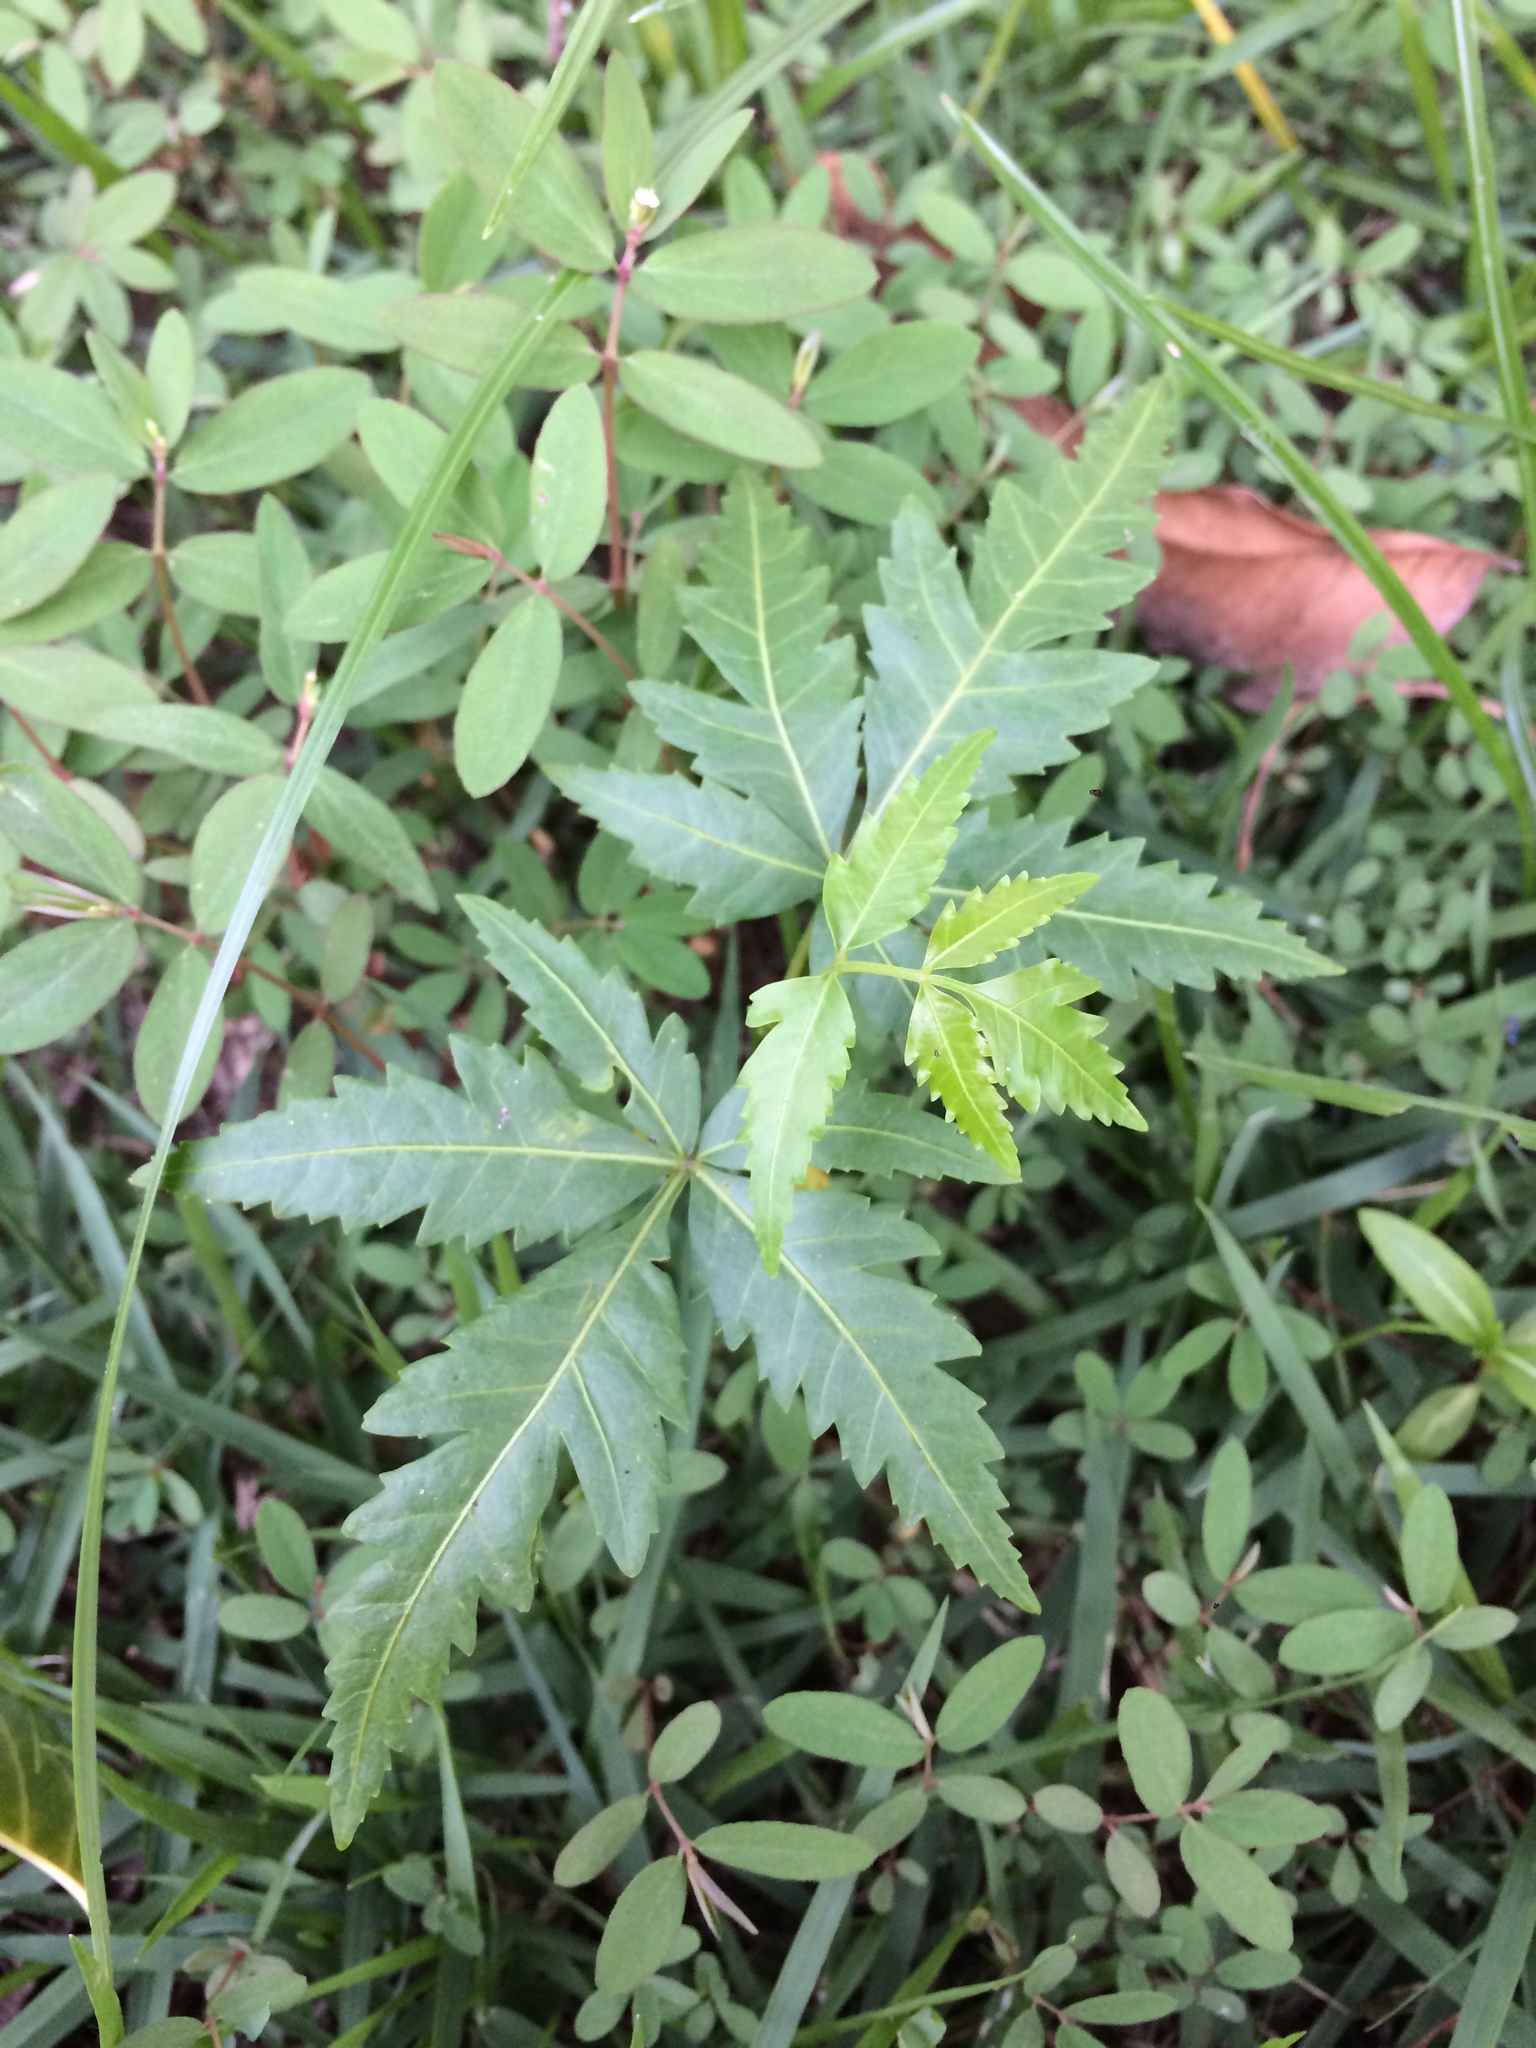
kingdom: Plantae
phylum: Tracheophyta
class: Magnoliopsida
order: Sapindales
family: Meliaceae
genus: Azadirachta
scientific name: Azadirachta indica
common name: Neem
